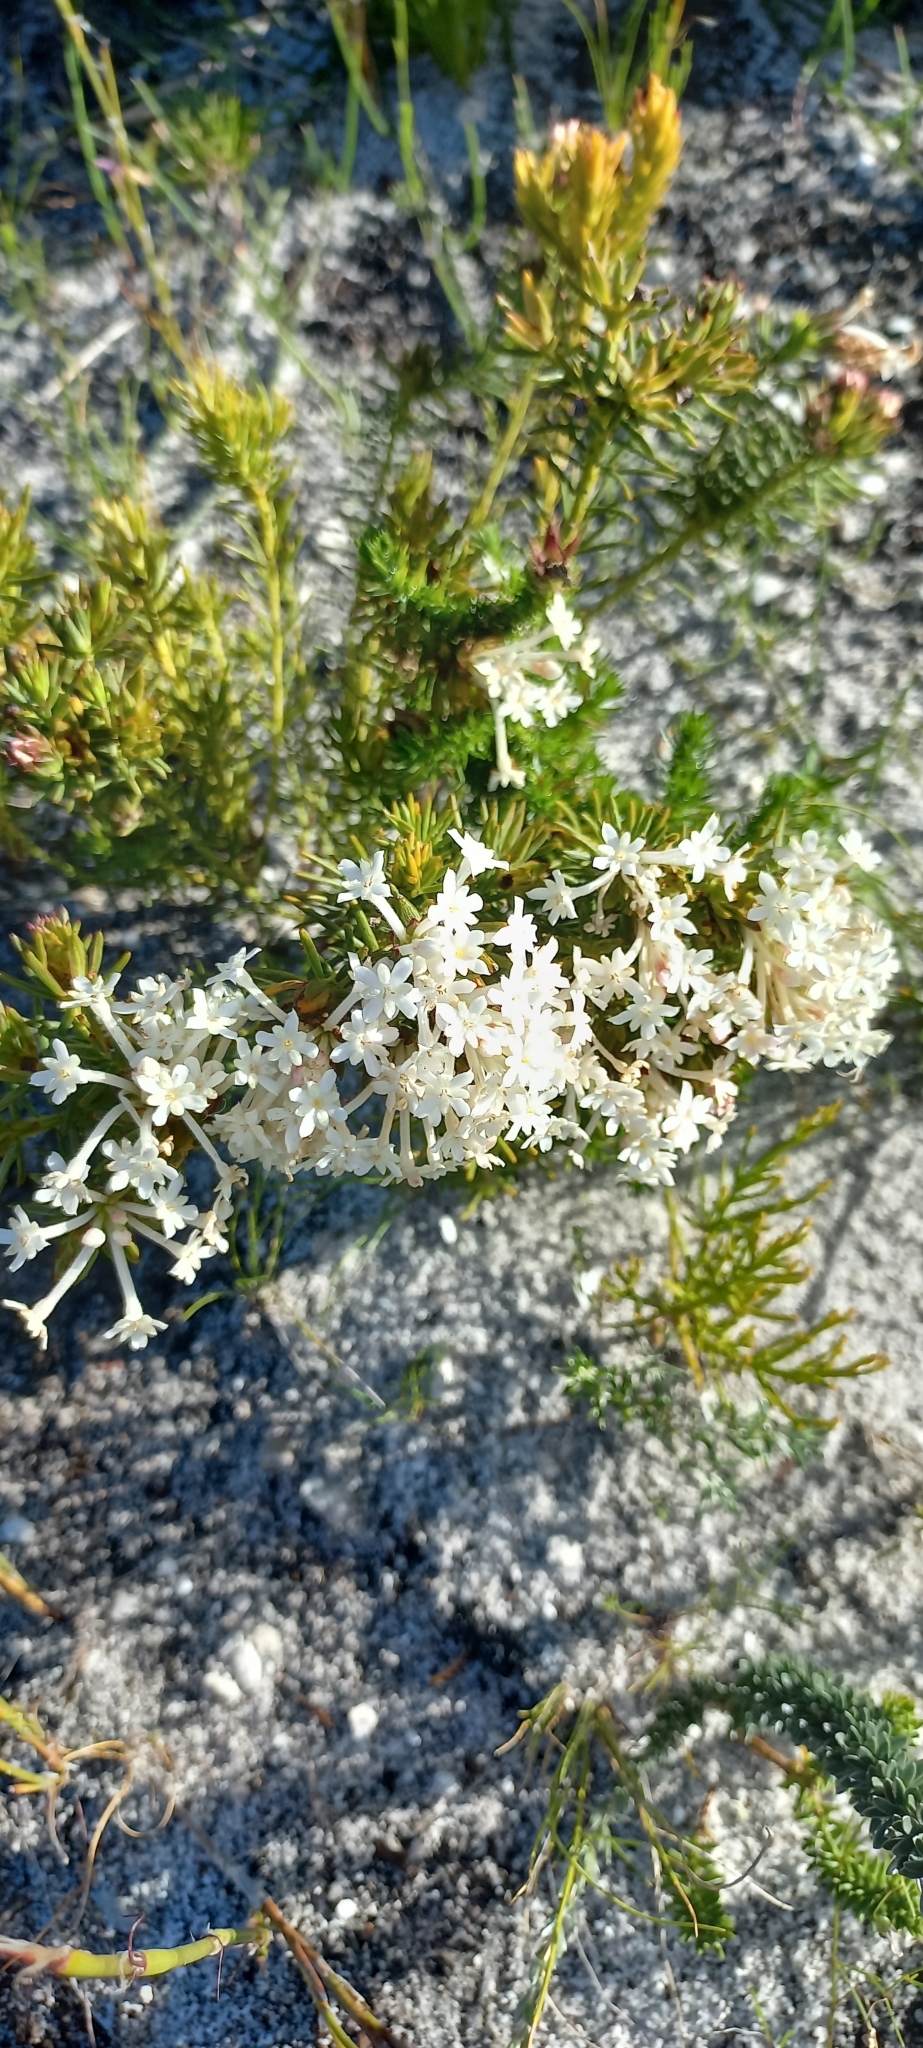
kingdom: Plantae
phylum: Tracheophyta
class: Magnoliopsida
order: Malvales
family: Thymelaeaceae
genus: Gnidia
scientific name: Gnidia pinifolia
